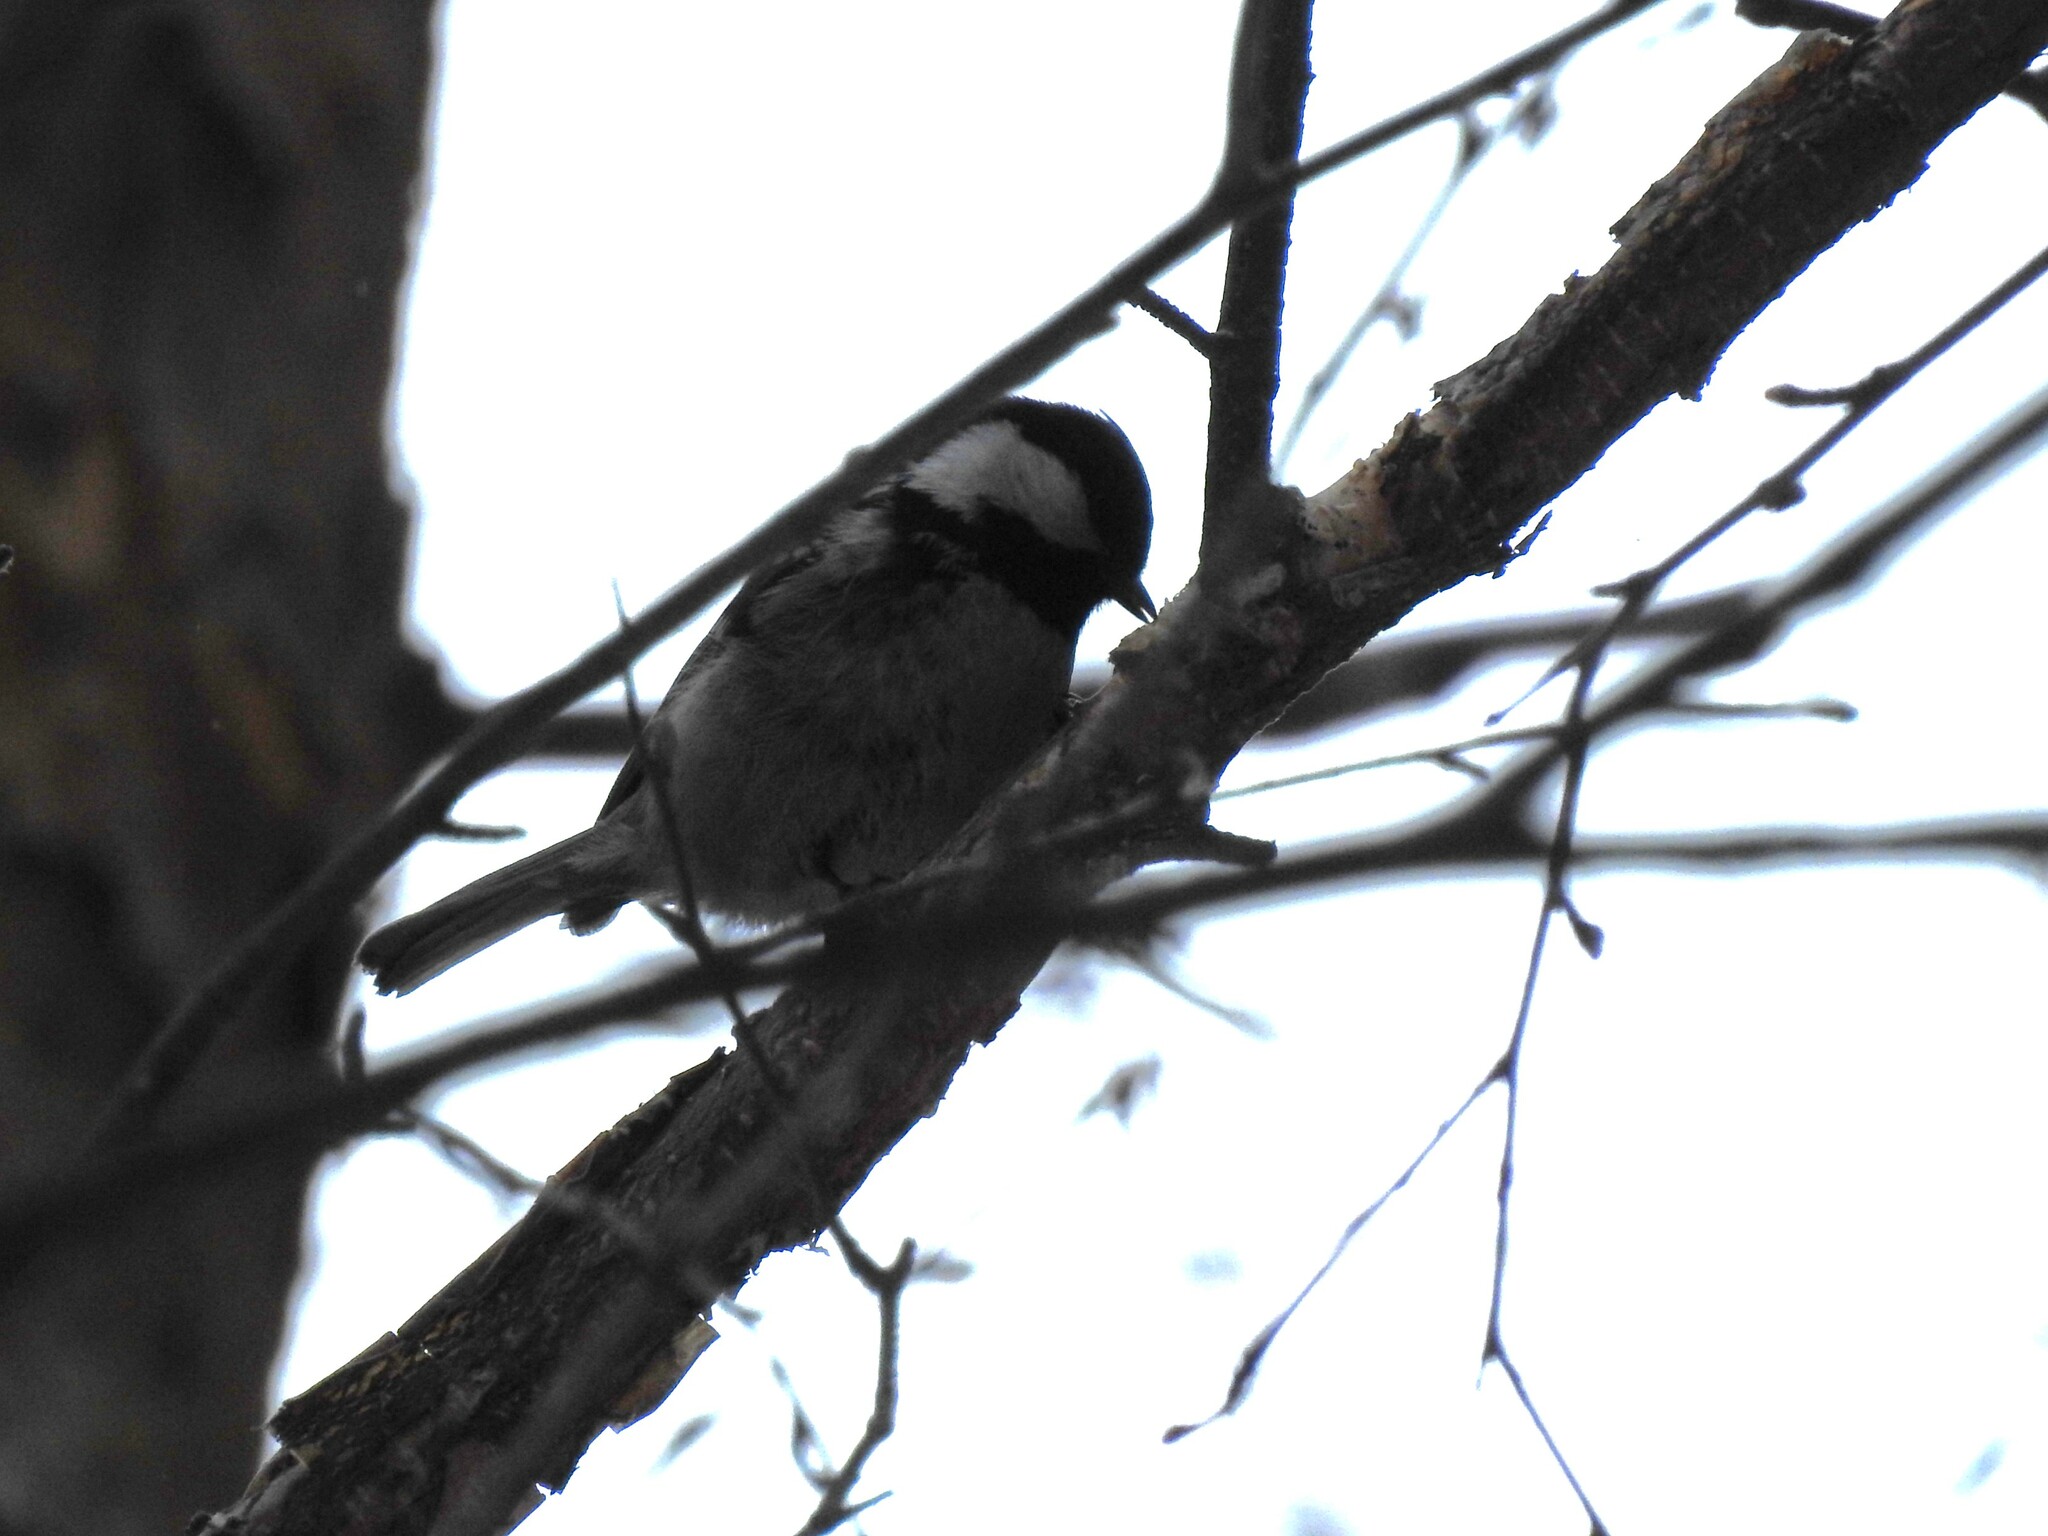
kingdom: Animalia
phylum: Chordata
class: Aves
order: Passeriformes
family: Paridae
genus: Periparus
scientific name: Periparus ater
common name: Coal tit
